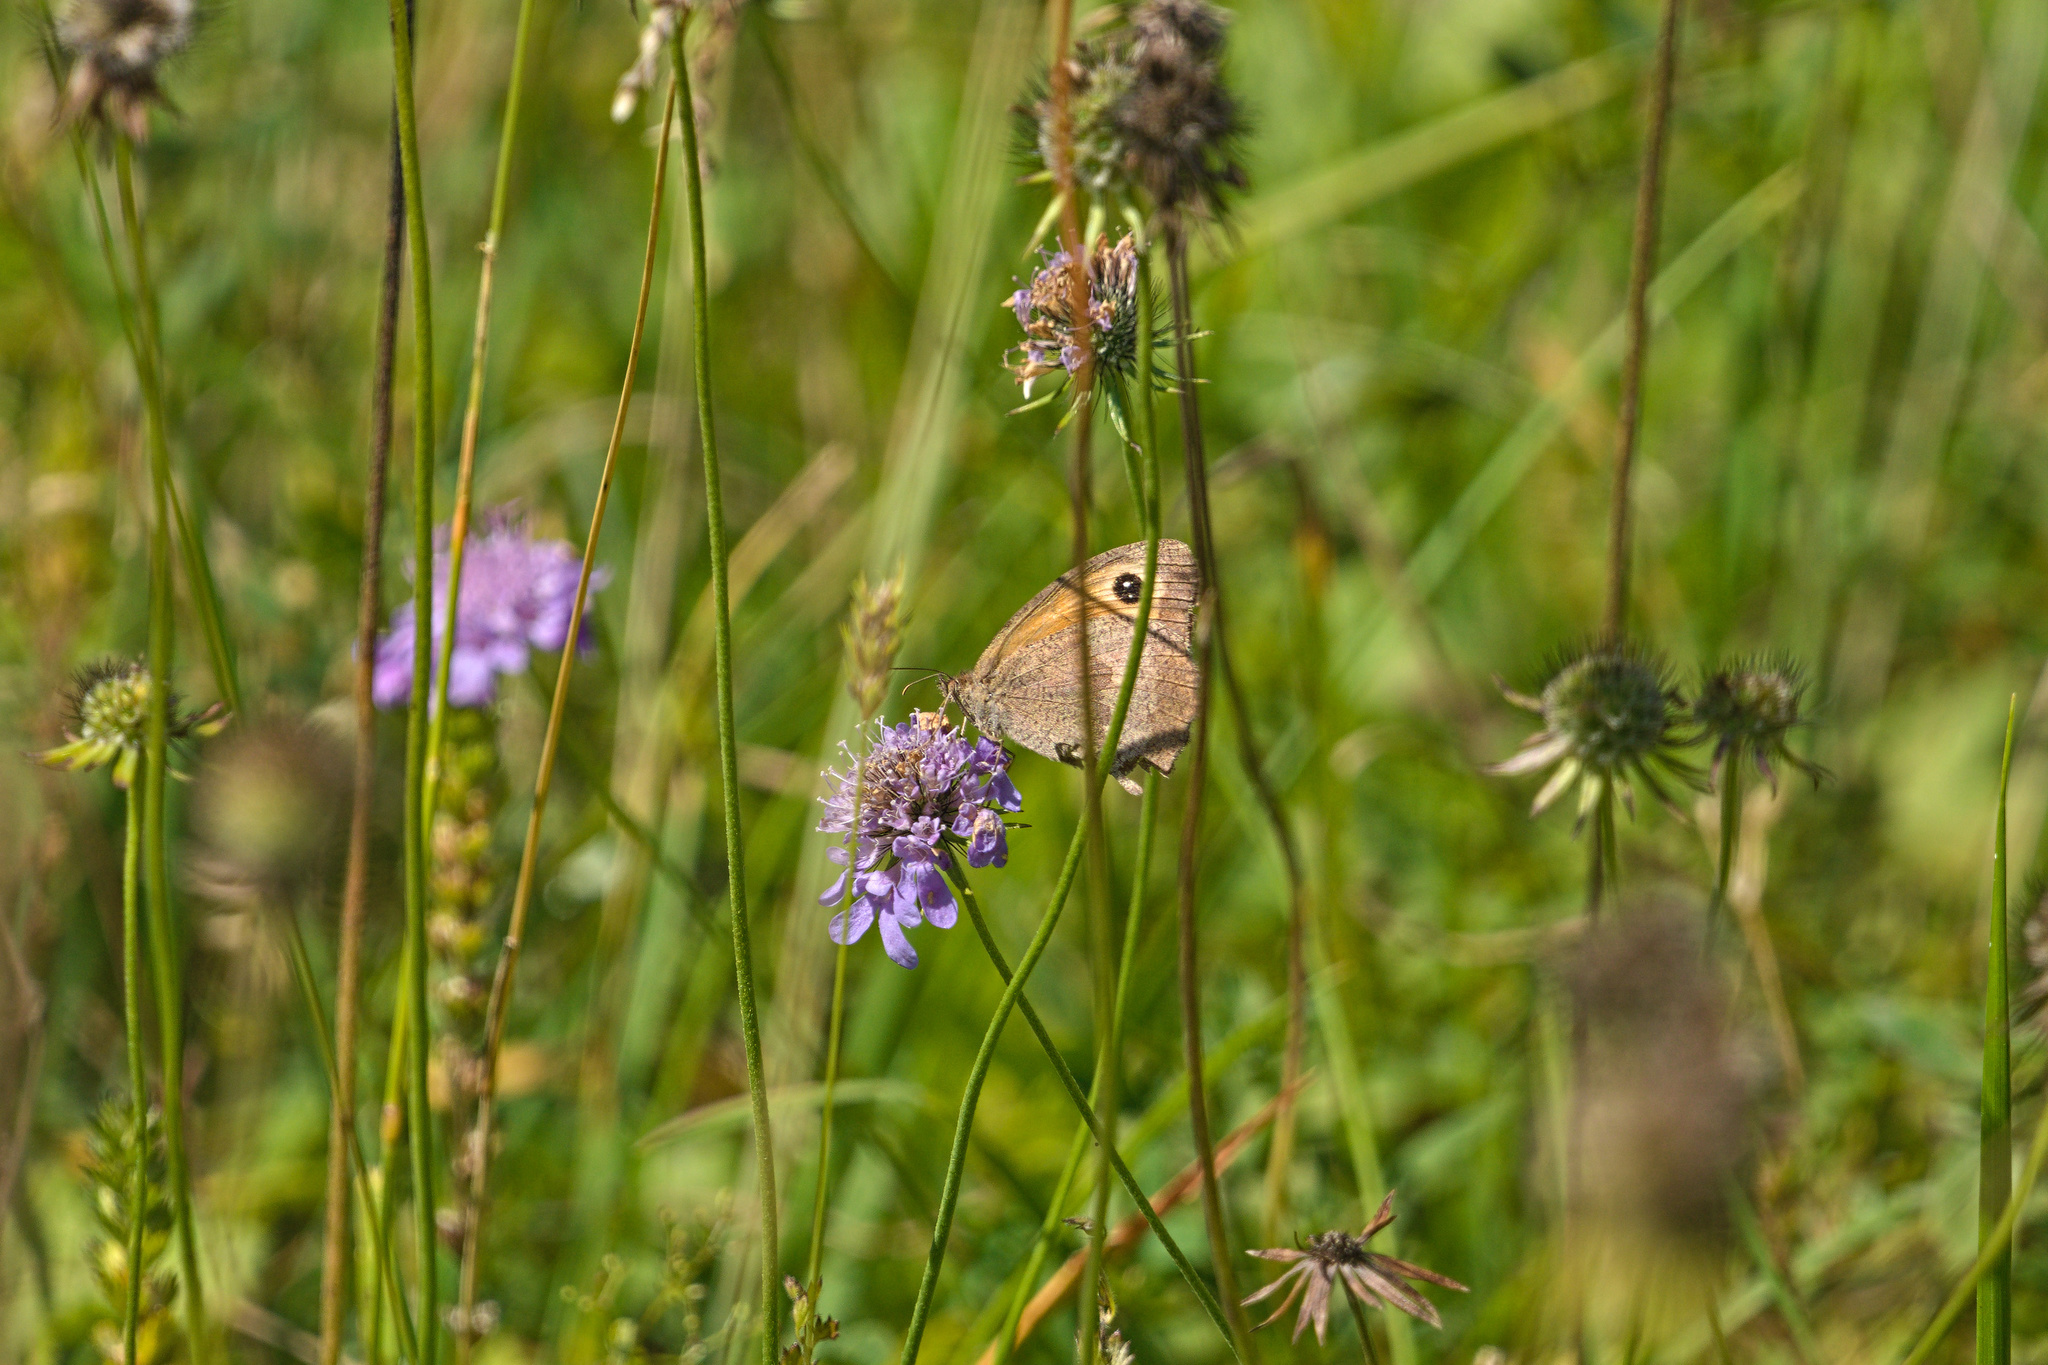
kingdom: Animalia
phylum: Arthropoda
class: Insecta
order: Lepidoptera
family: Nymphalidae
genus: Maniola
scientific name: Maniola jurtina
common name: Meadow brown
